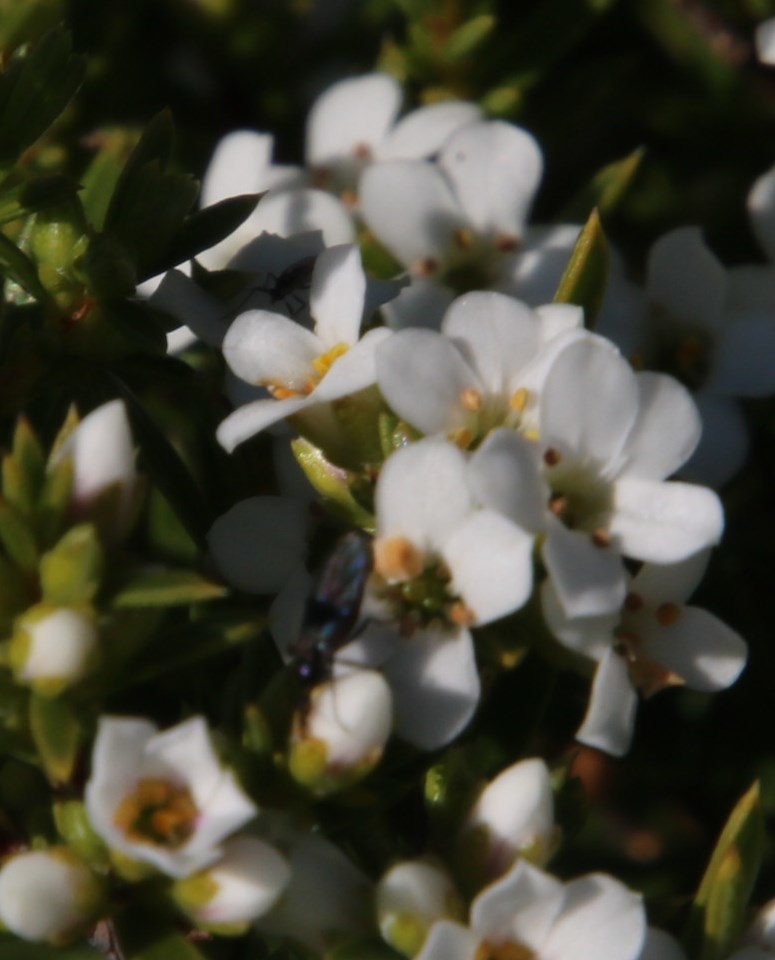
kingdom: Plantae
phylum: Tracheophyta
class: Magnoliopsida
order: Sapindales
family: Rutaceae
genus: Coleonema
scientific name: Coleonema album
